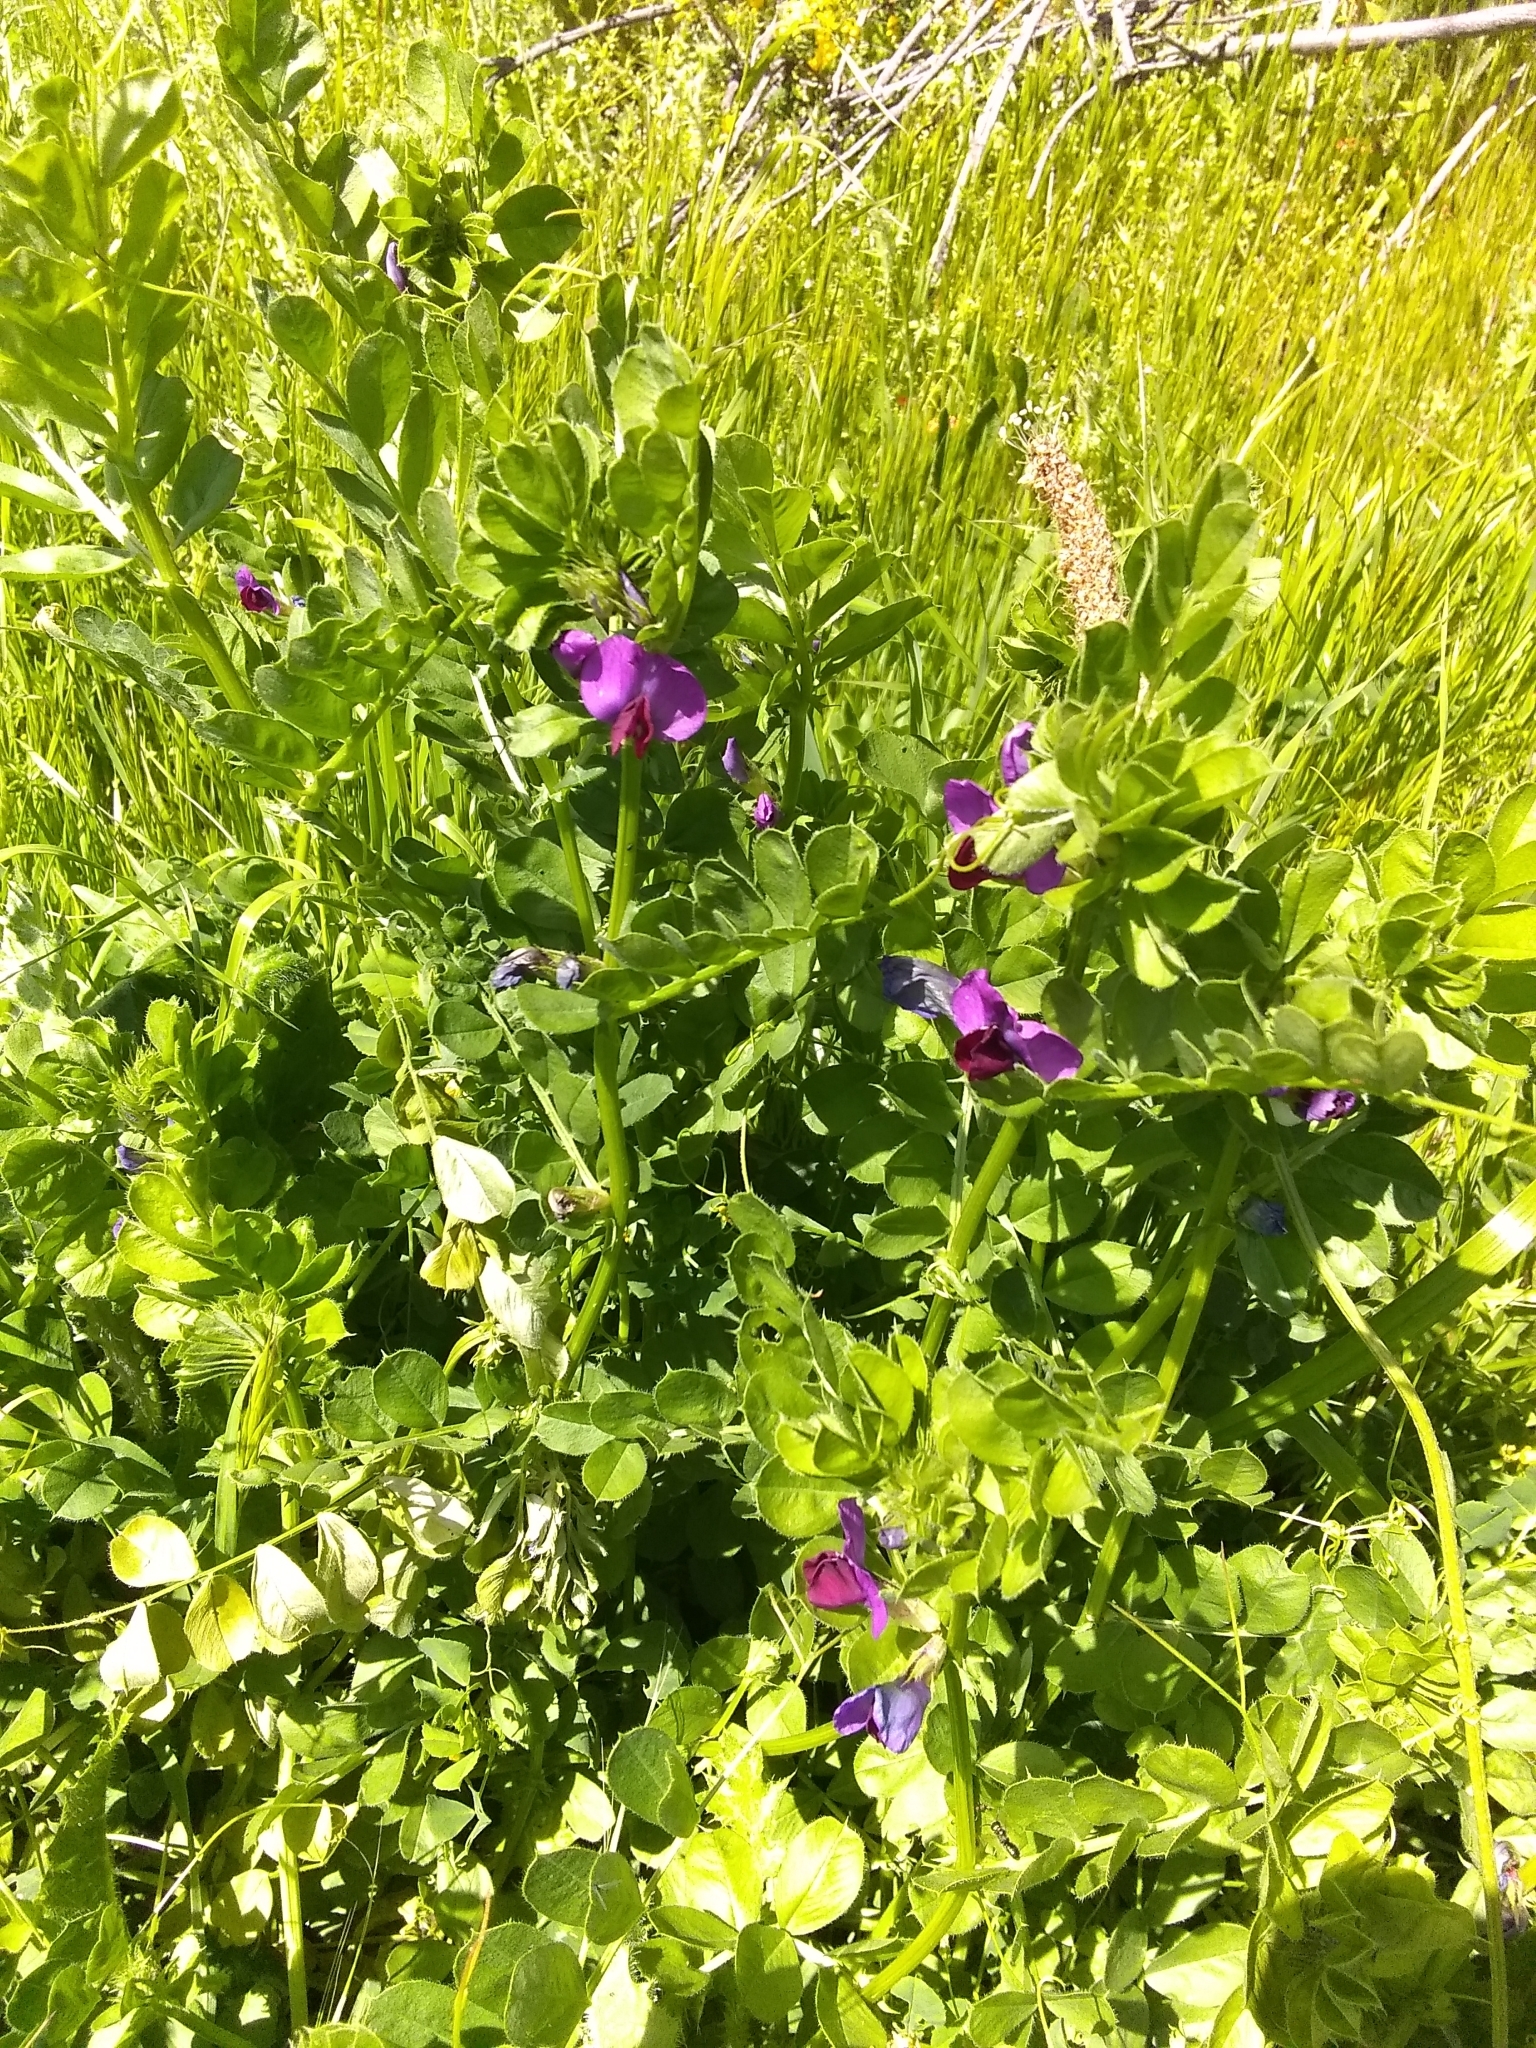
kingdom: Plantae
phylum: Tracheophyta
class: Magnoliopsida
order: Fabales
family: Fabaceae
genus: Vicia
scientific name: Vicia sativa
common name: Garden vetch
